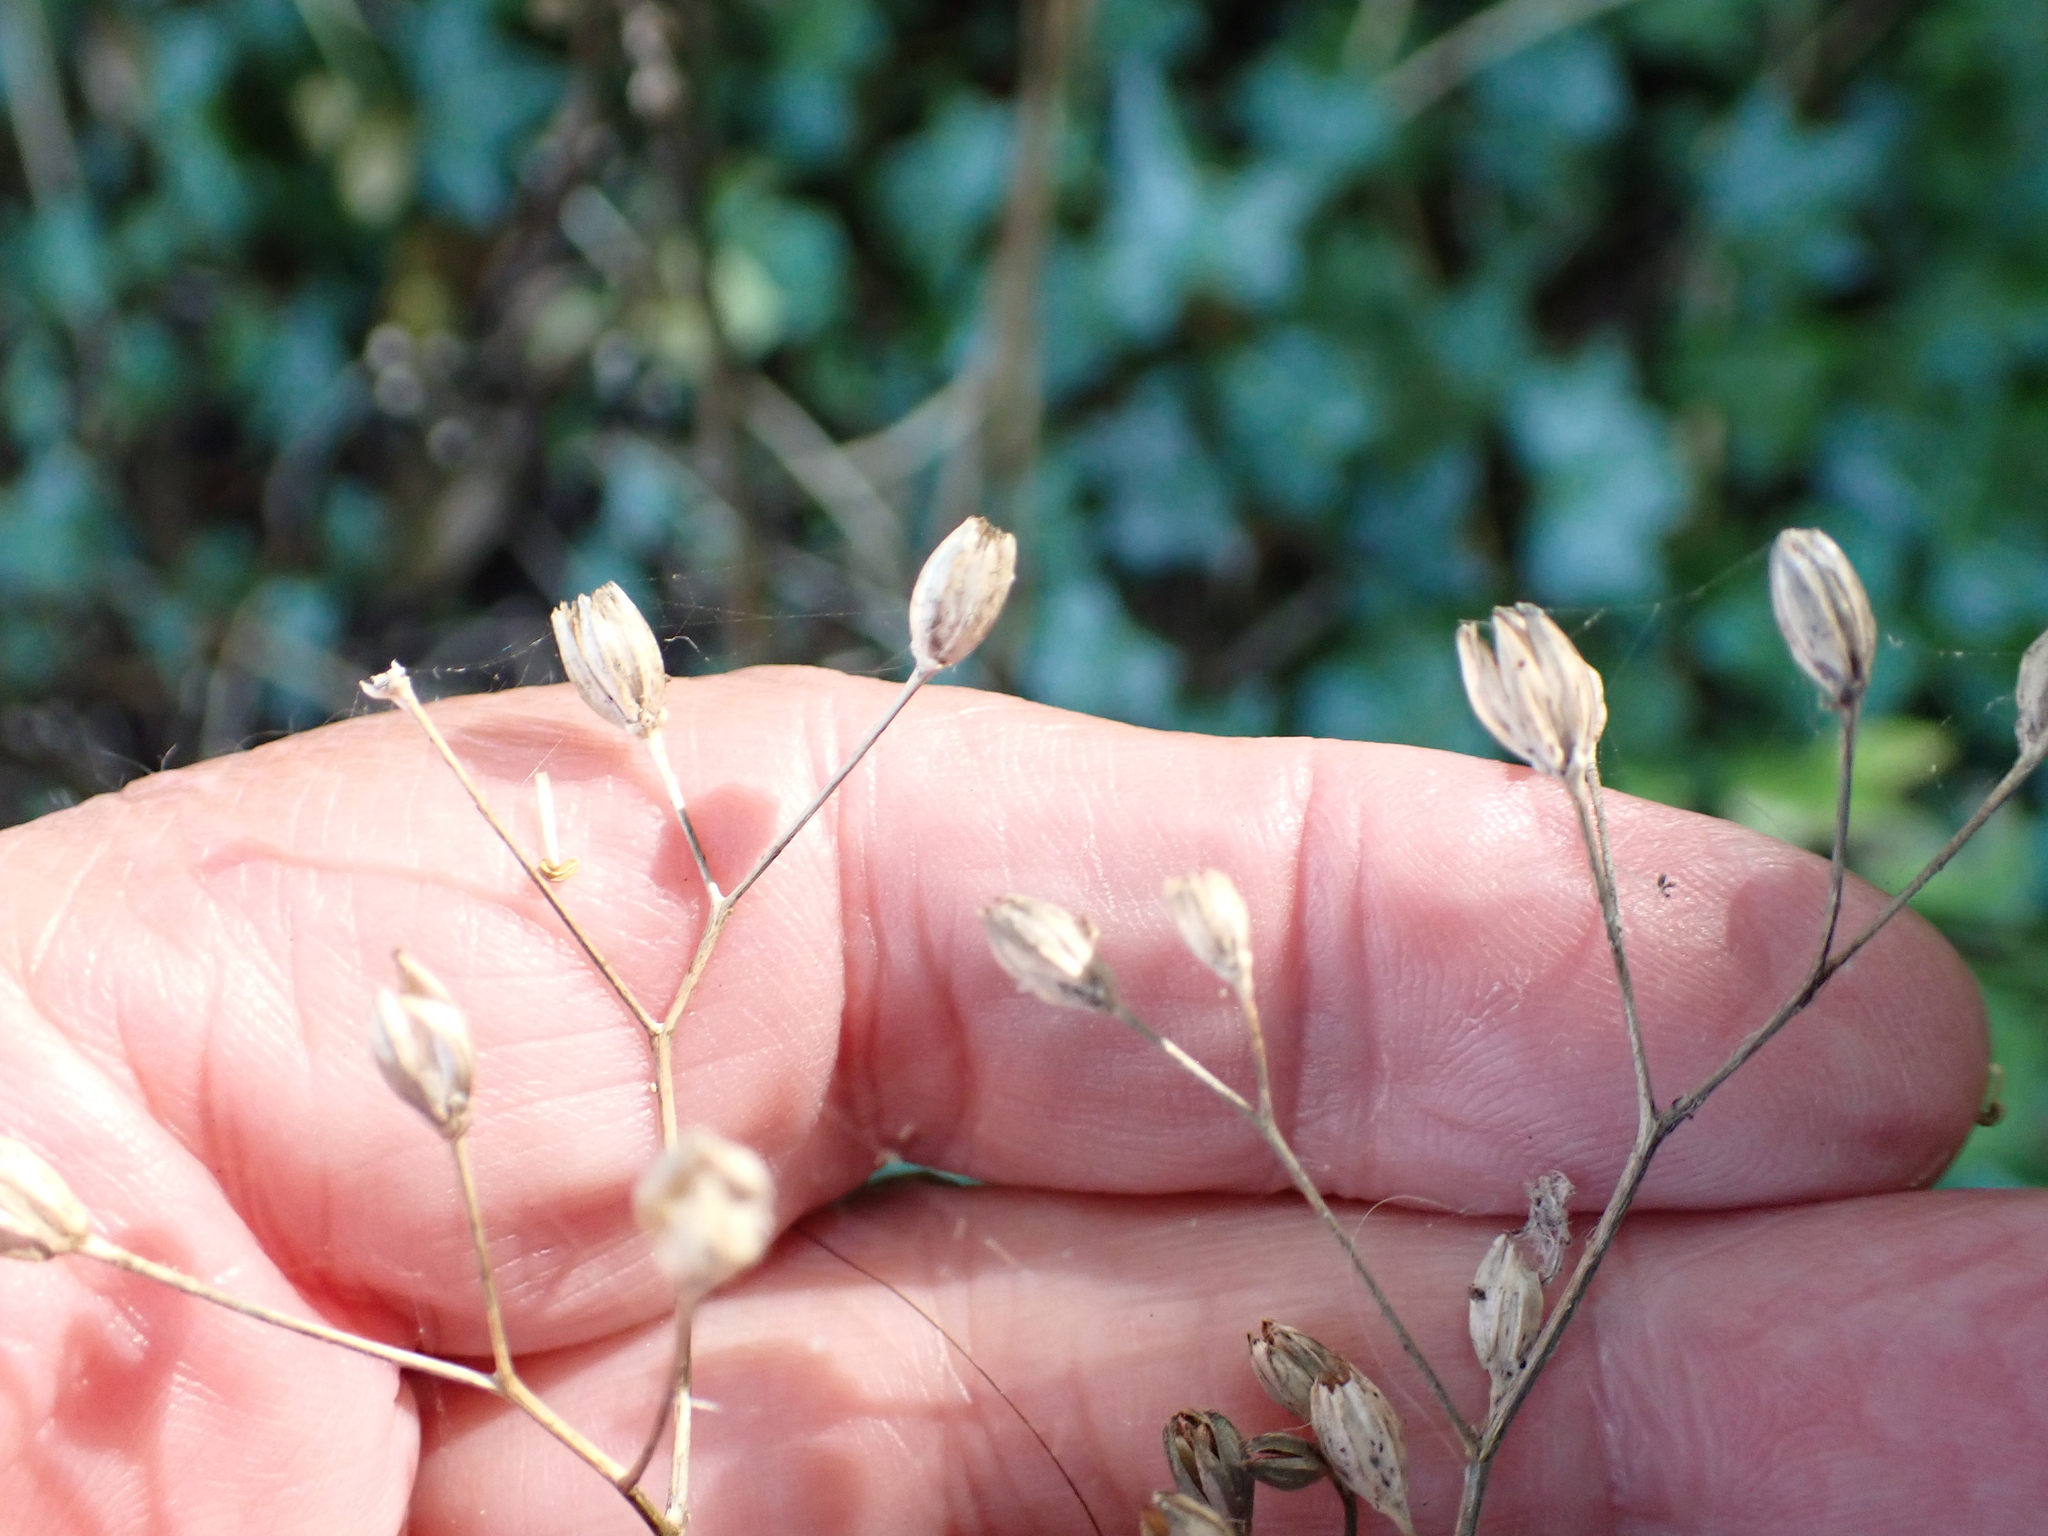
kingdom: Plantae
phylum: Tracheophyta
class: Magnoliopsida
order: Asterales
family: Asteraceae
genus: Lapsana
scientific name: Lapsana communis
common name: Nipplewort
